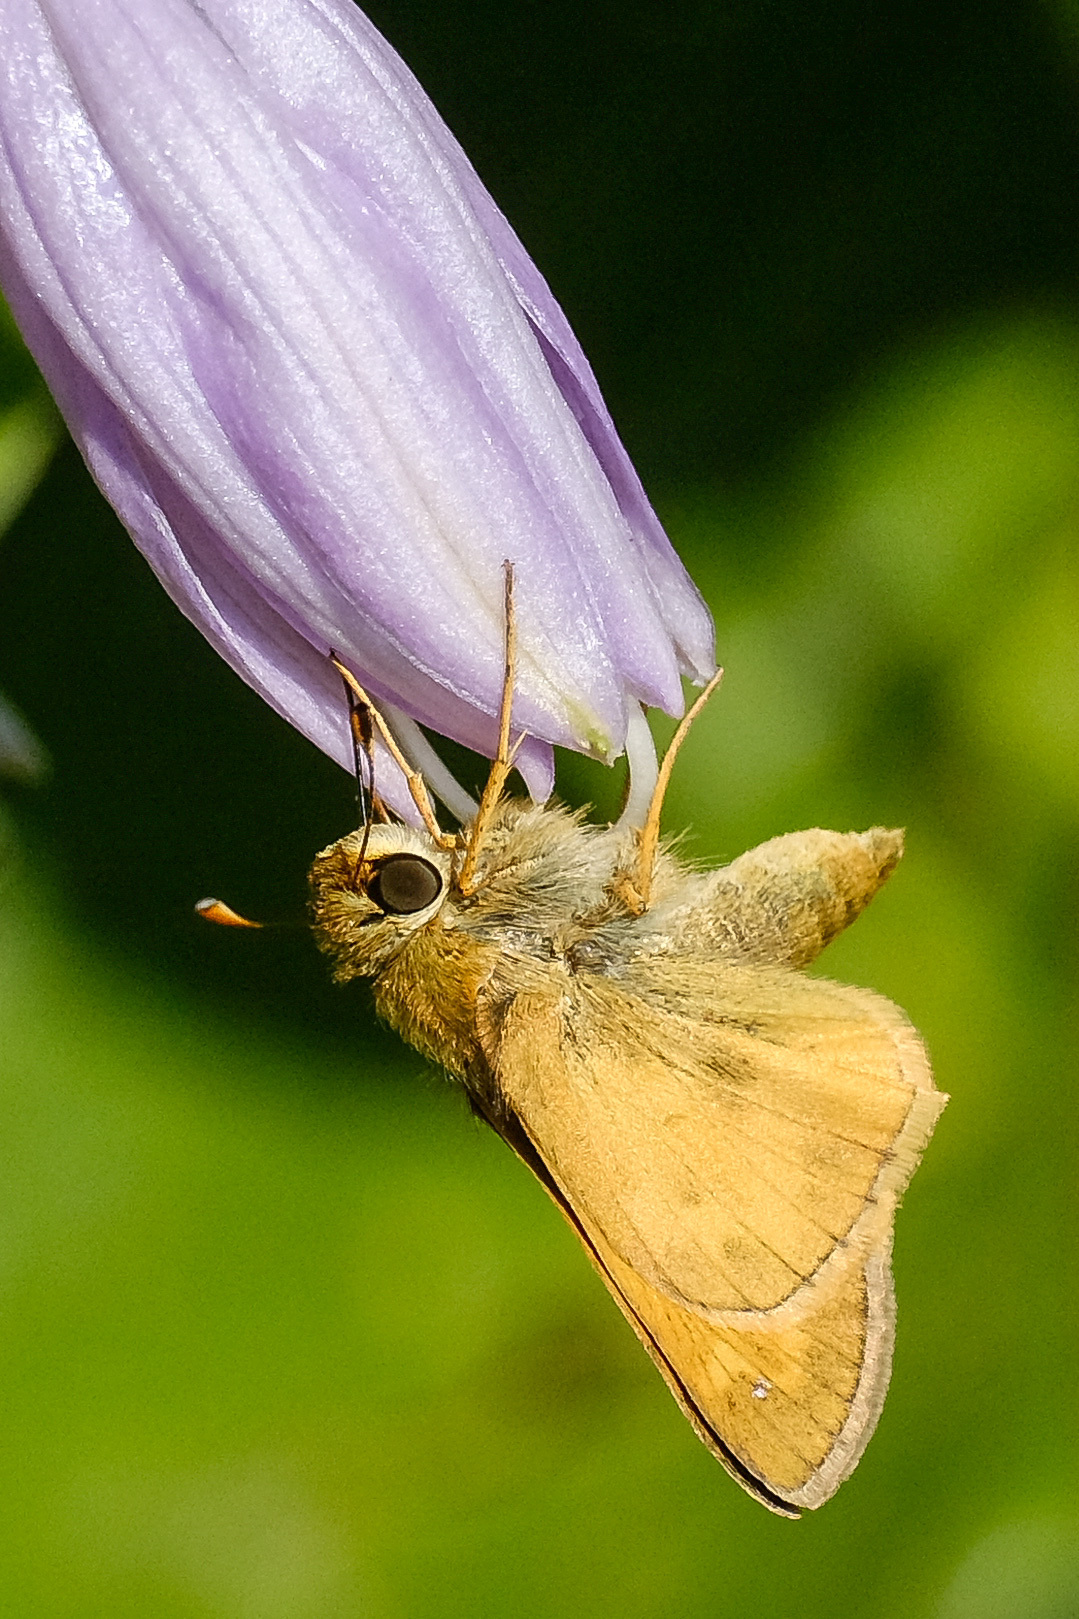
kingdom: Animalia
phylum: Arthropoda
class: Insecta
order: Lepidoptera
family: Hesperiidae
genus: Atalopedes
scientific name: Atalopedes
